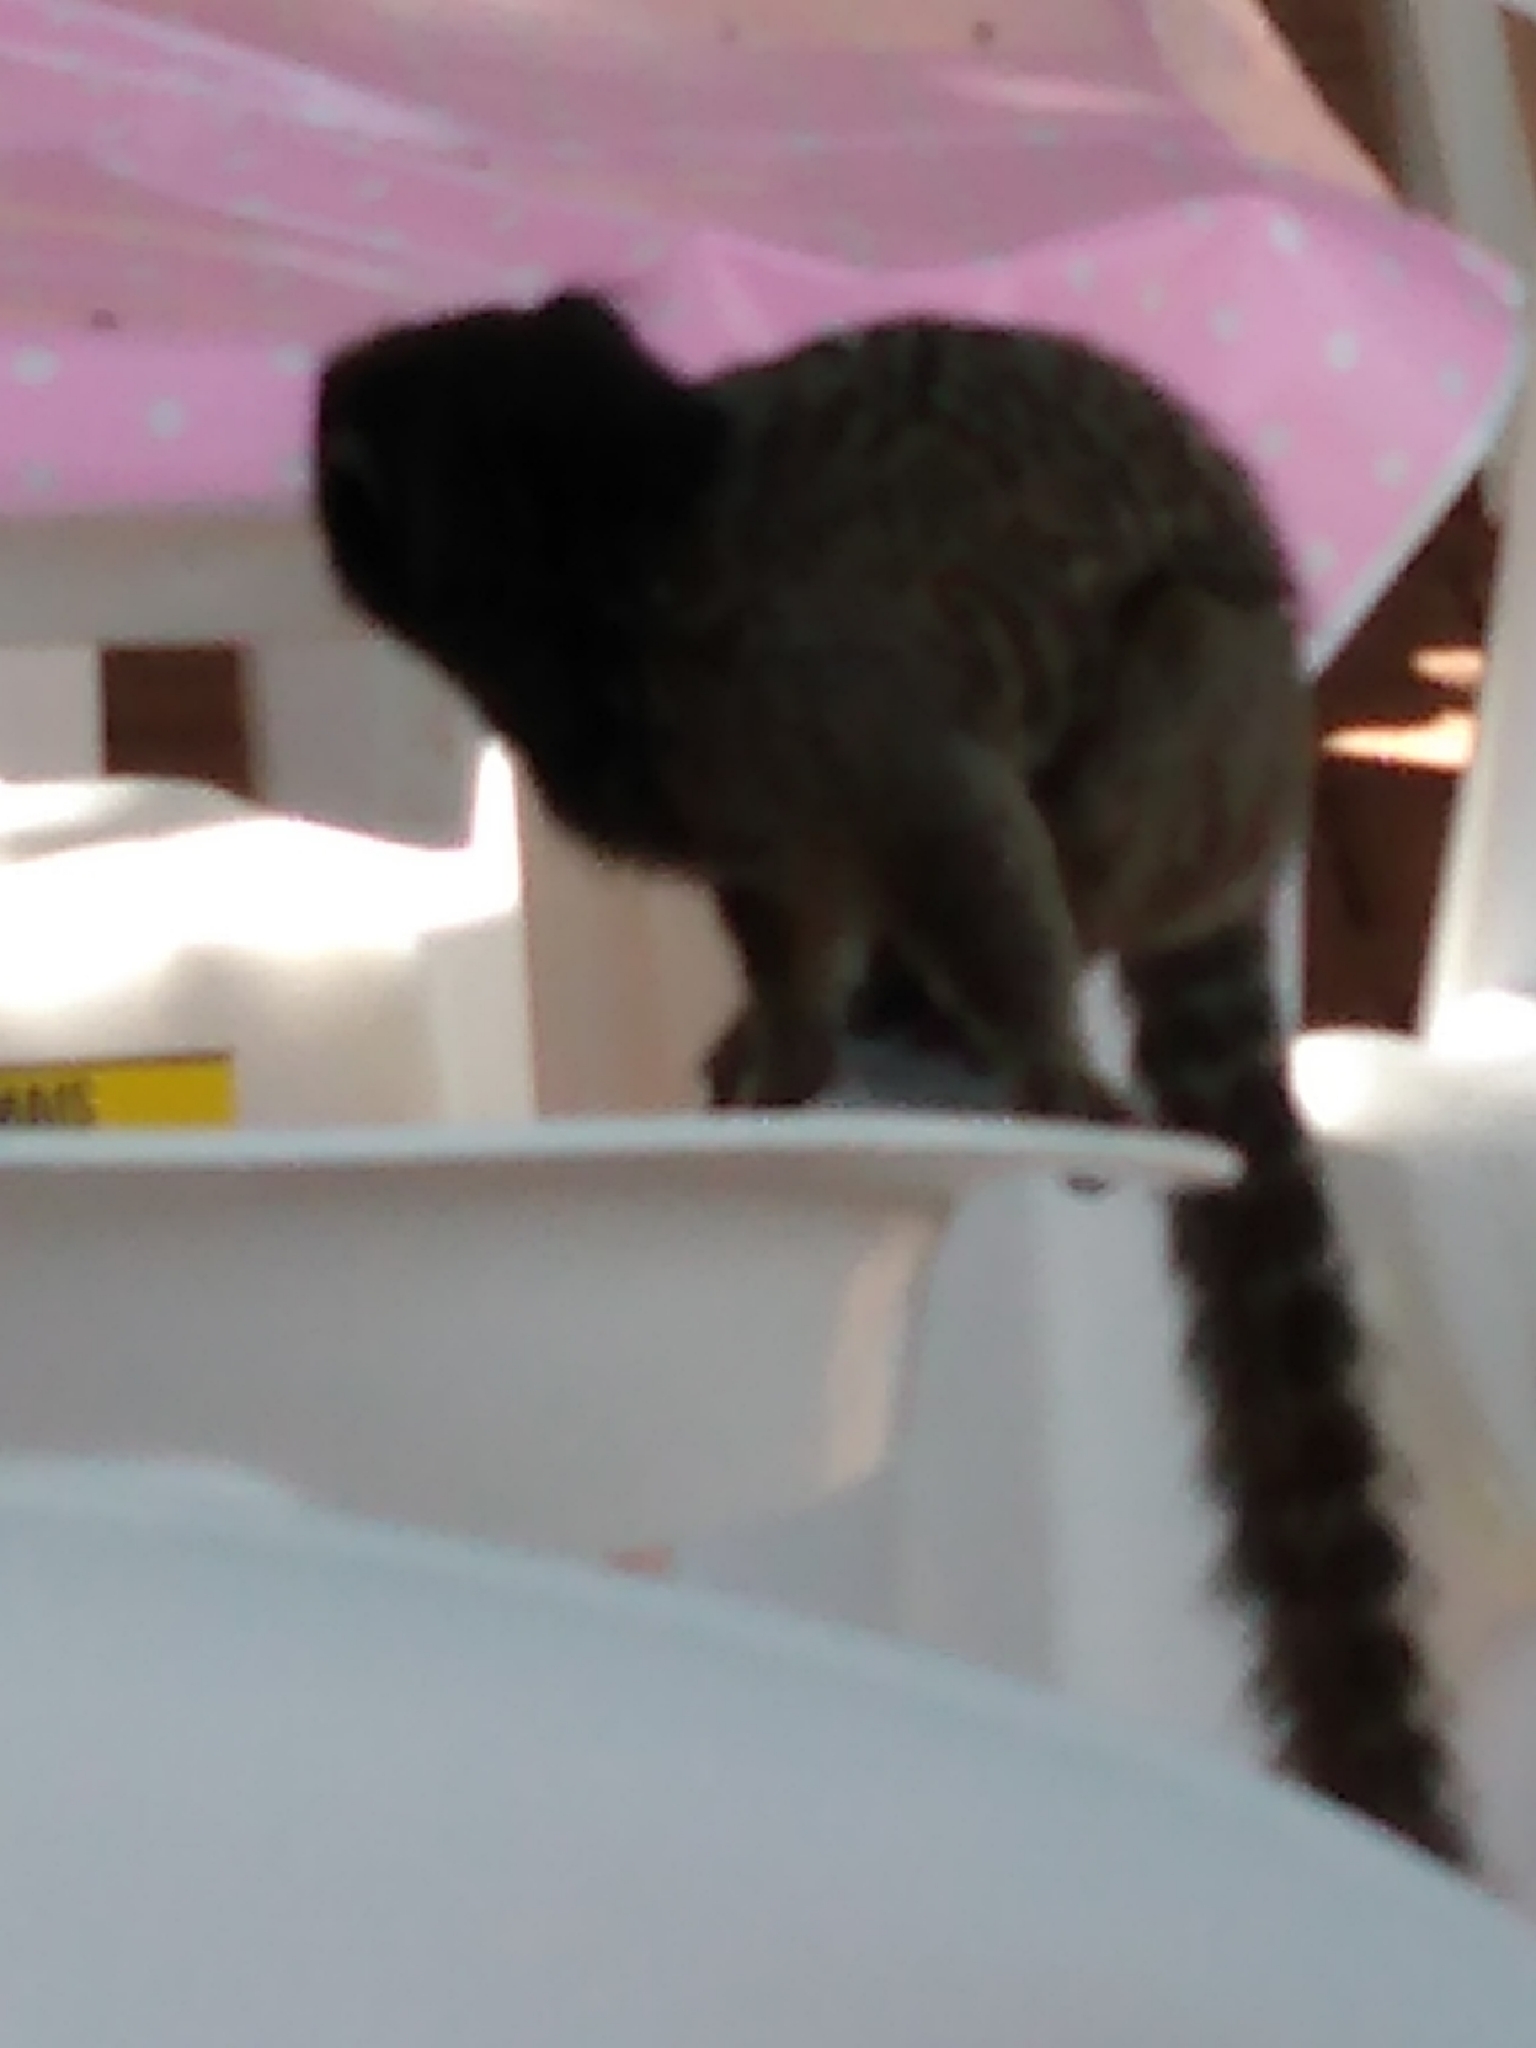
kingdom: Animalia
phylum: Chordata
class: Mammalia
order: Primates
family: Callitrichidae
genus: Callithrix
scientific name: Callithrix penicillata
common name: Black-tufted marmoset
